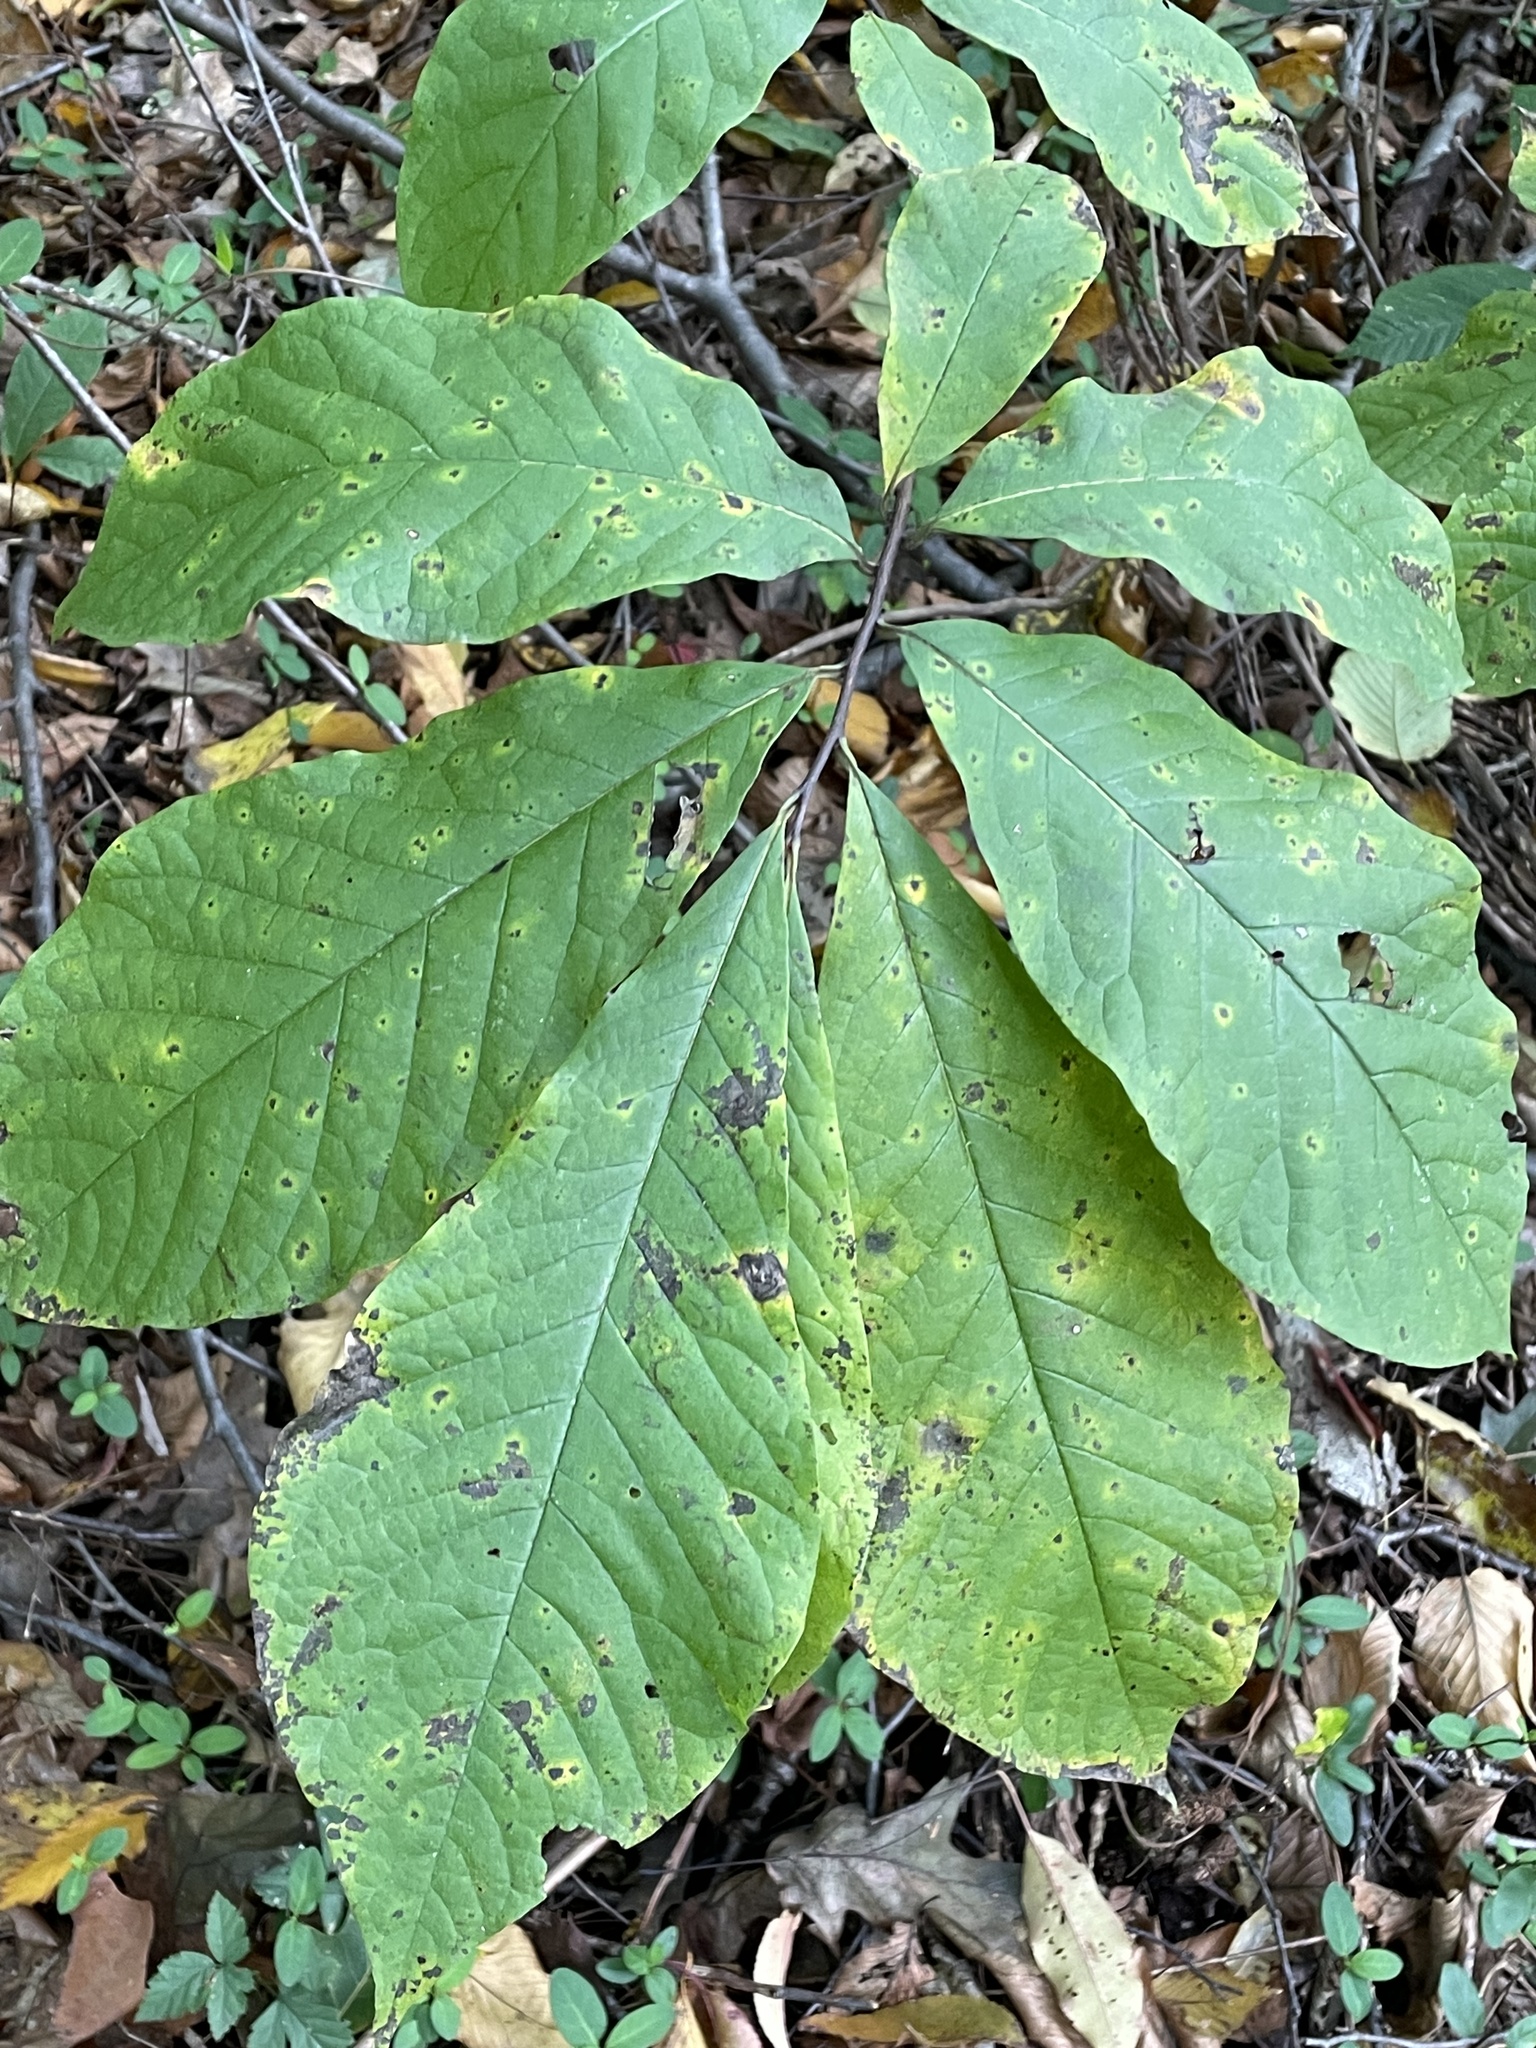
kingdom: Plantae
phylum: Tracheophyta
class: Magnoliopsida
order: Magnoliales
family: Annonaceae
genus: Asimina
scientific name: Asimina triloba
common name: Dog-banana
